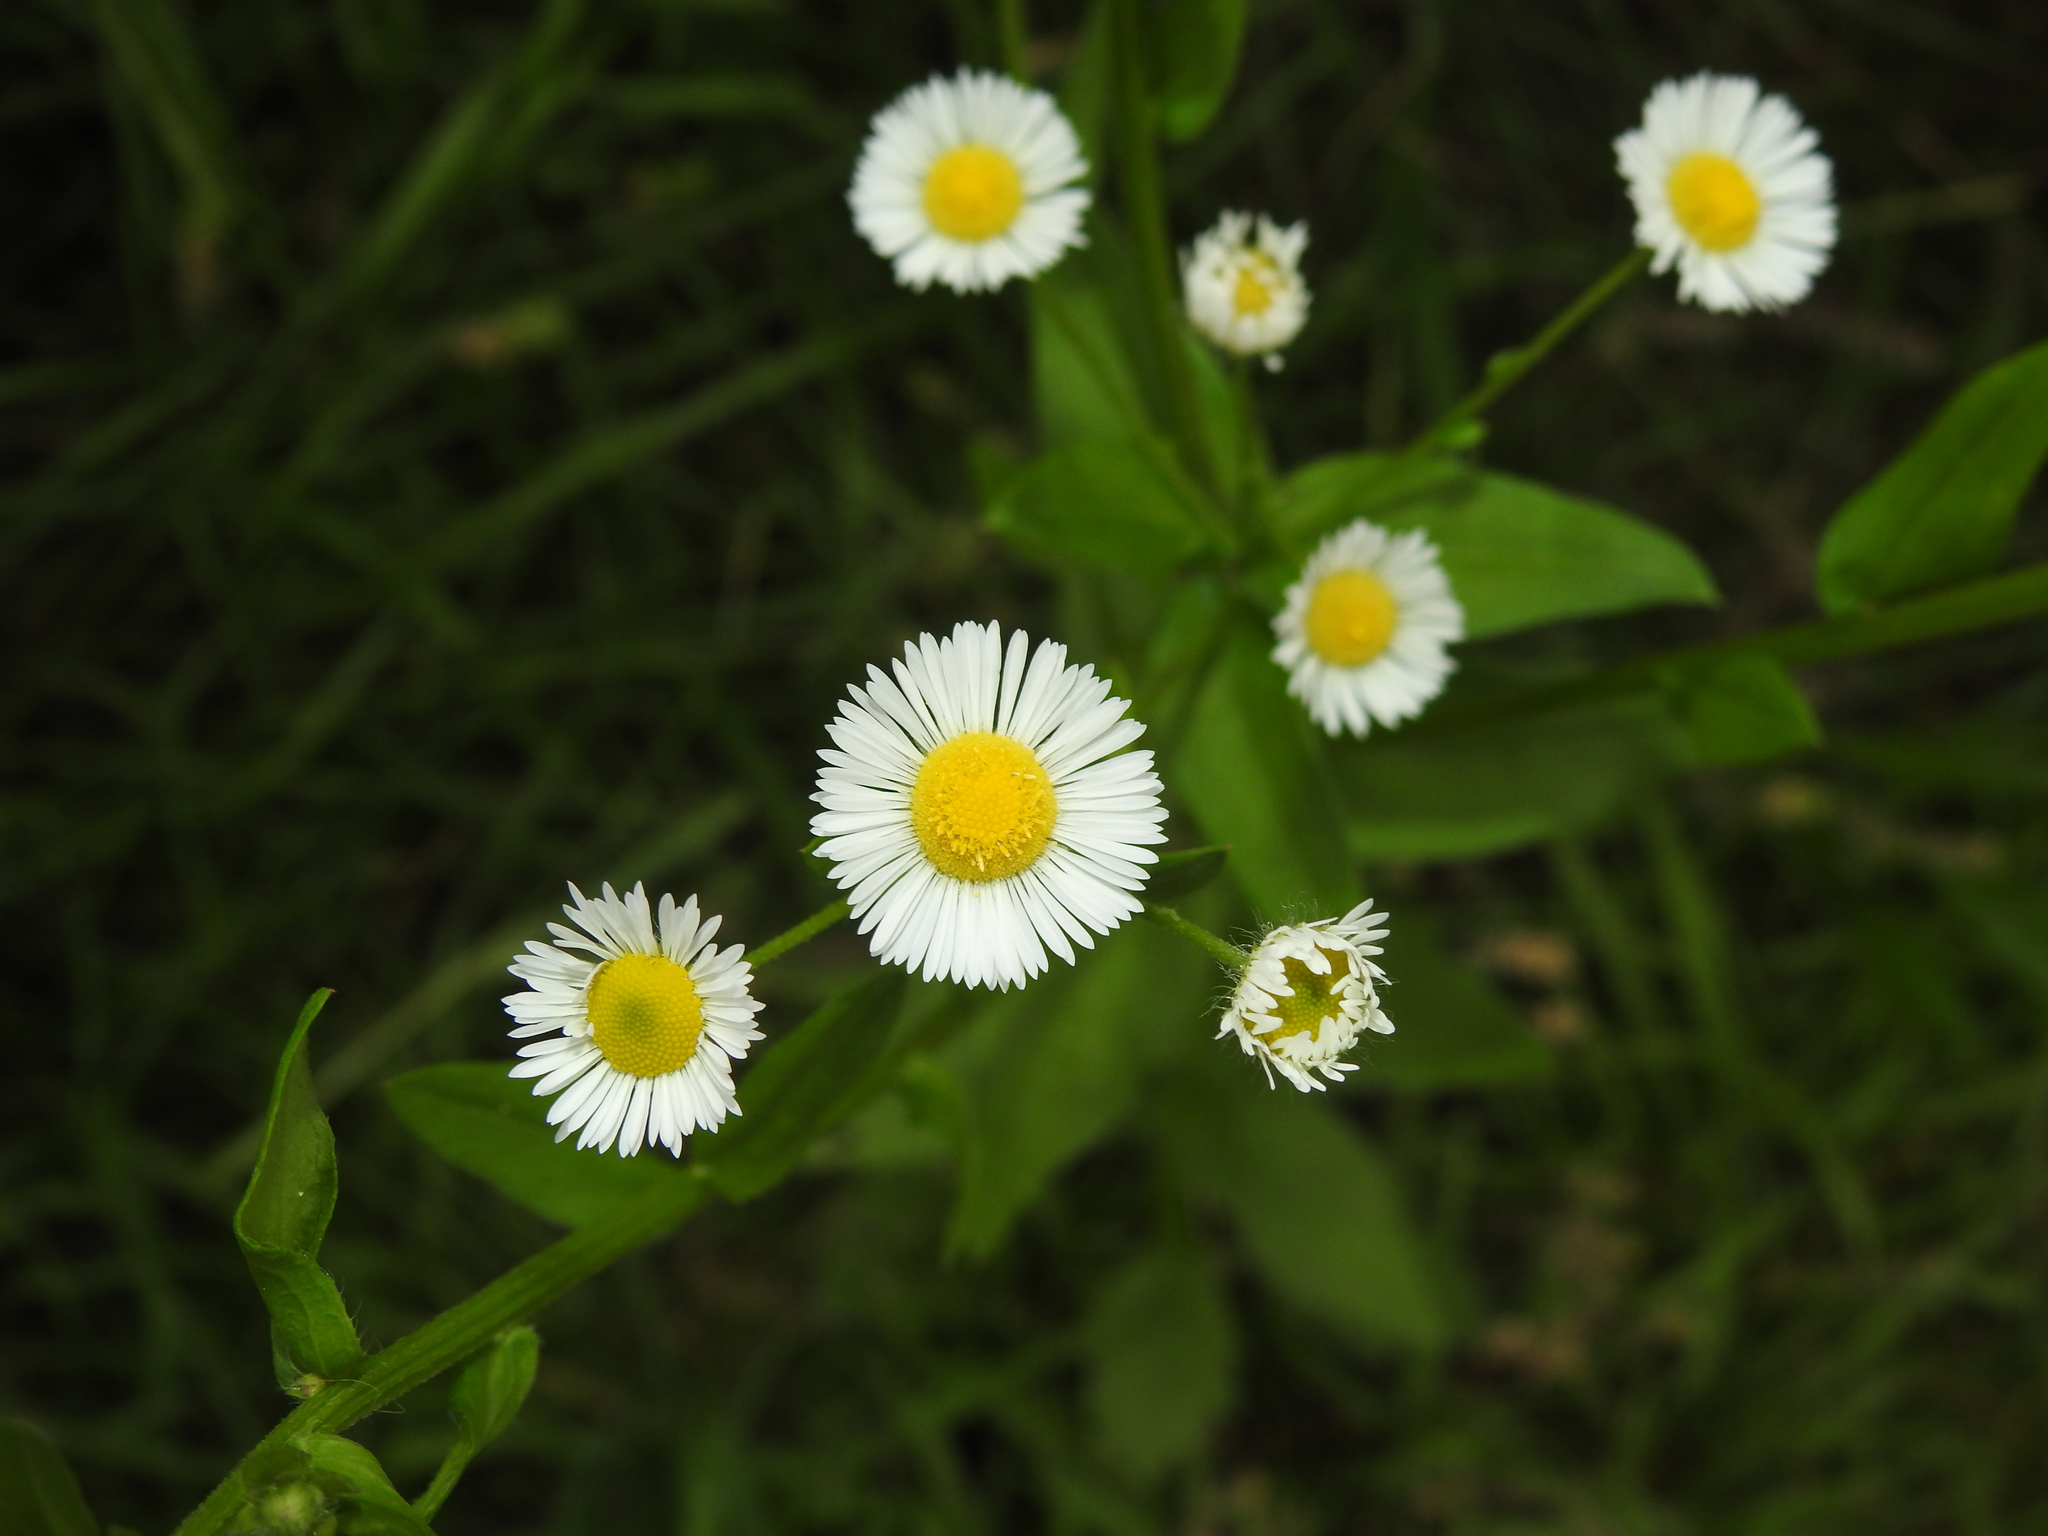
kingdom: Plantae
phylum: Tracheophyta
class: Magnoliopsida
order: Asterales
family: Asteraceae
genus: Erigeron
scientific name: Erigeron strigosus
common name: Common eastern fleabane
